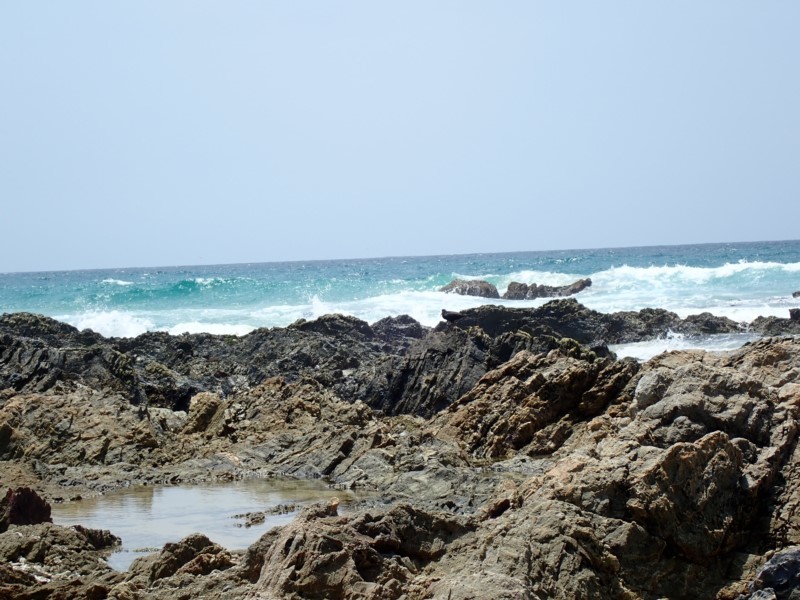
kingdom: Animalia
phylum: Chordata
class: Aves
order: Charadriiformes
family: Haematopodidae
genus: Haematopus
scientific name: Haematopus fuliginosus
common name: Sooty oystercatcher
